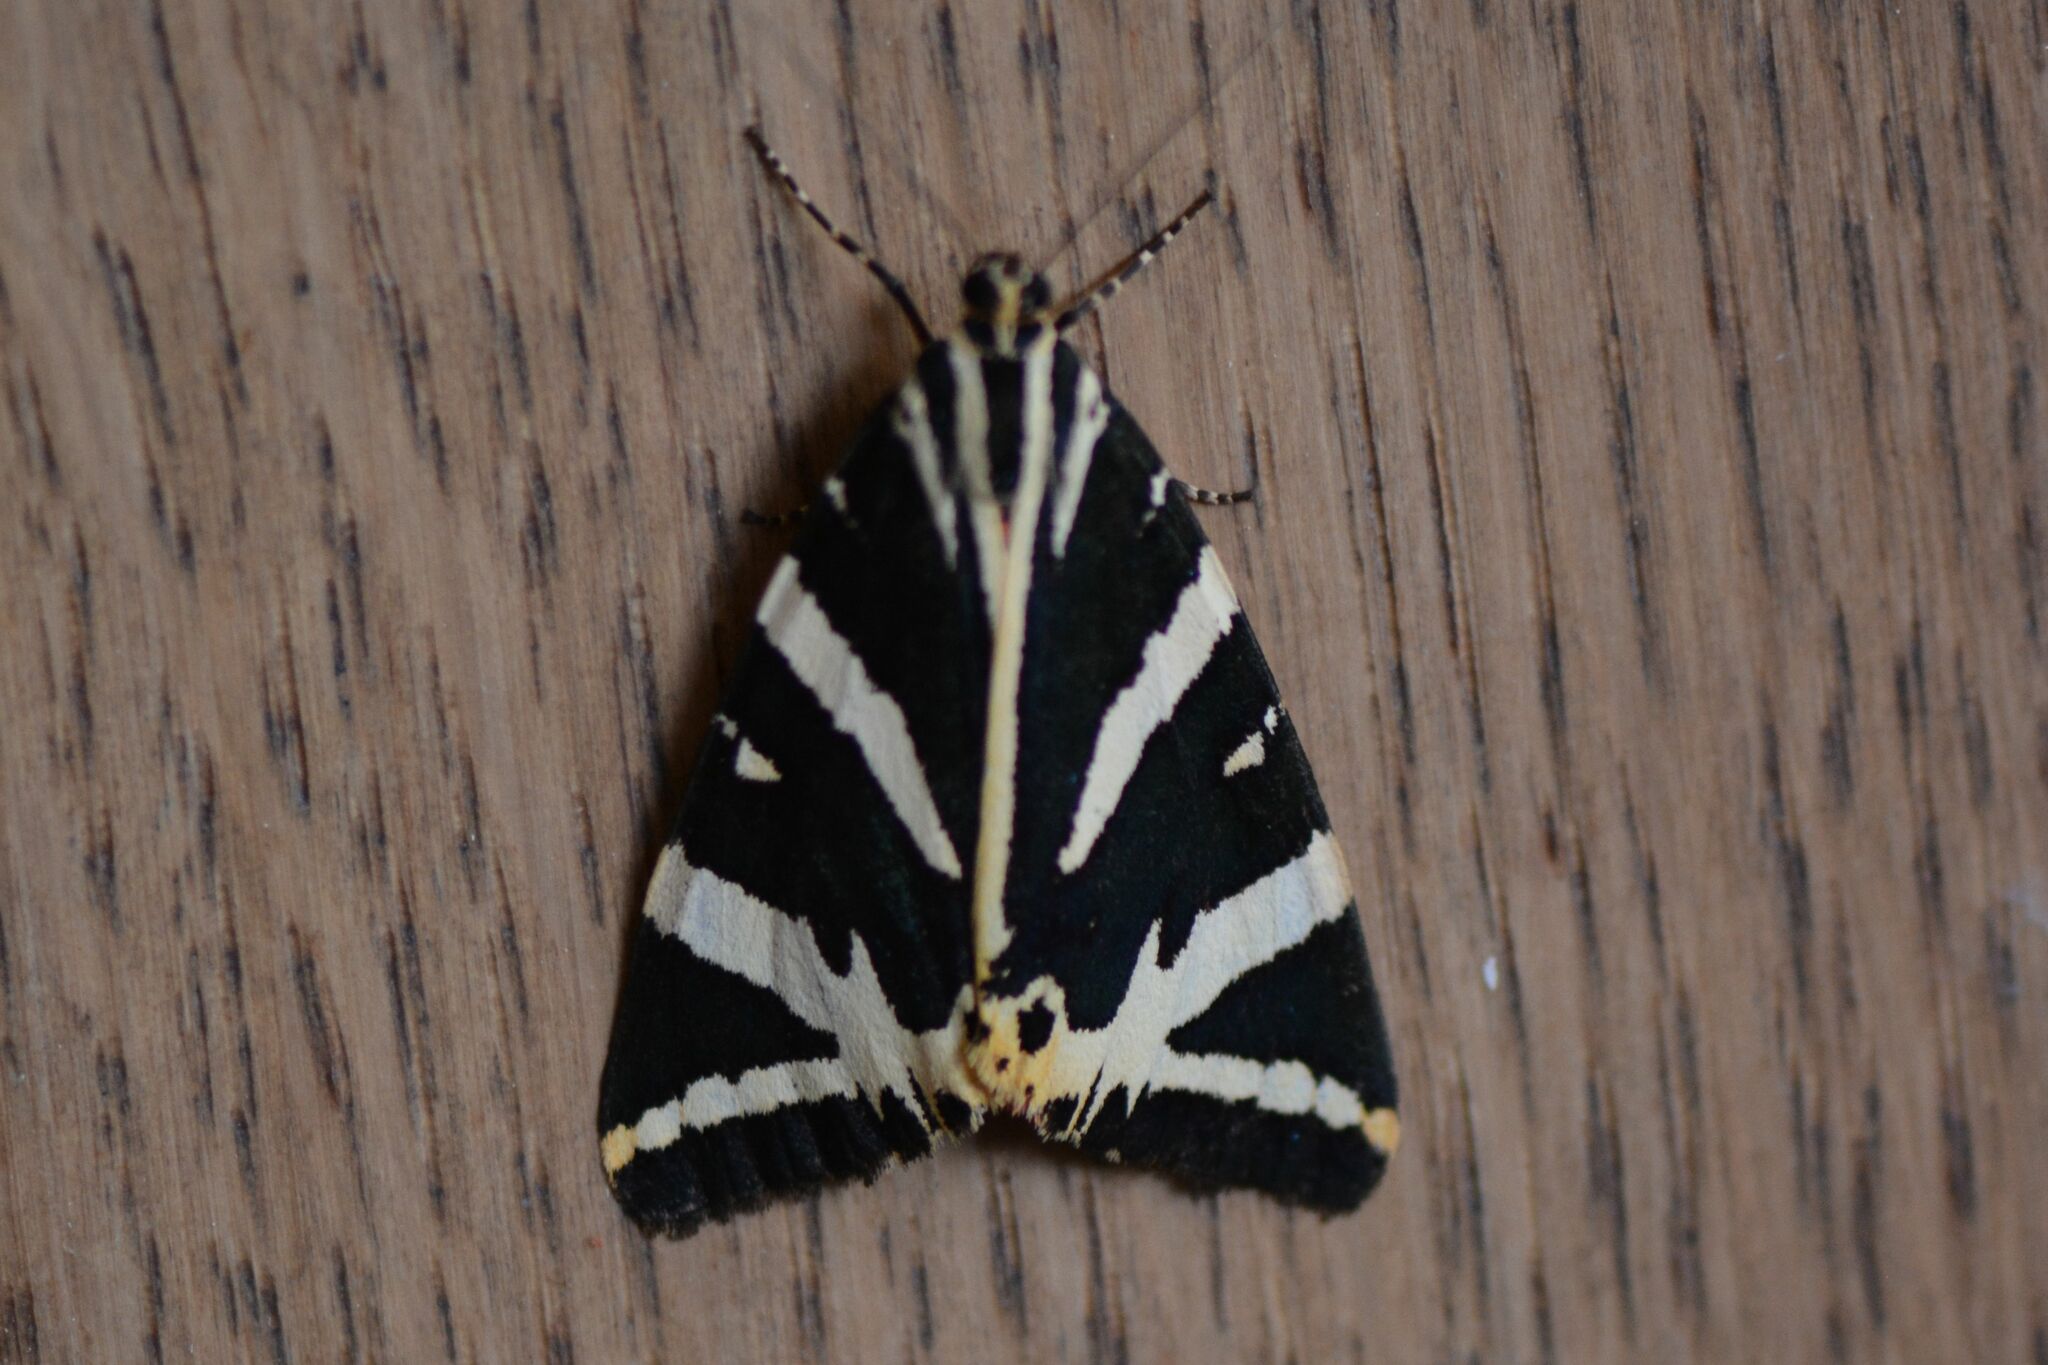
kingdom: Animalia
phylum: Arthropoda
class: Insecta
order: Lepidoptera
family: Erebidae
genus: Euplagia
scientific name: Euplagia quadripunctaria
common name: Jersey tiger
